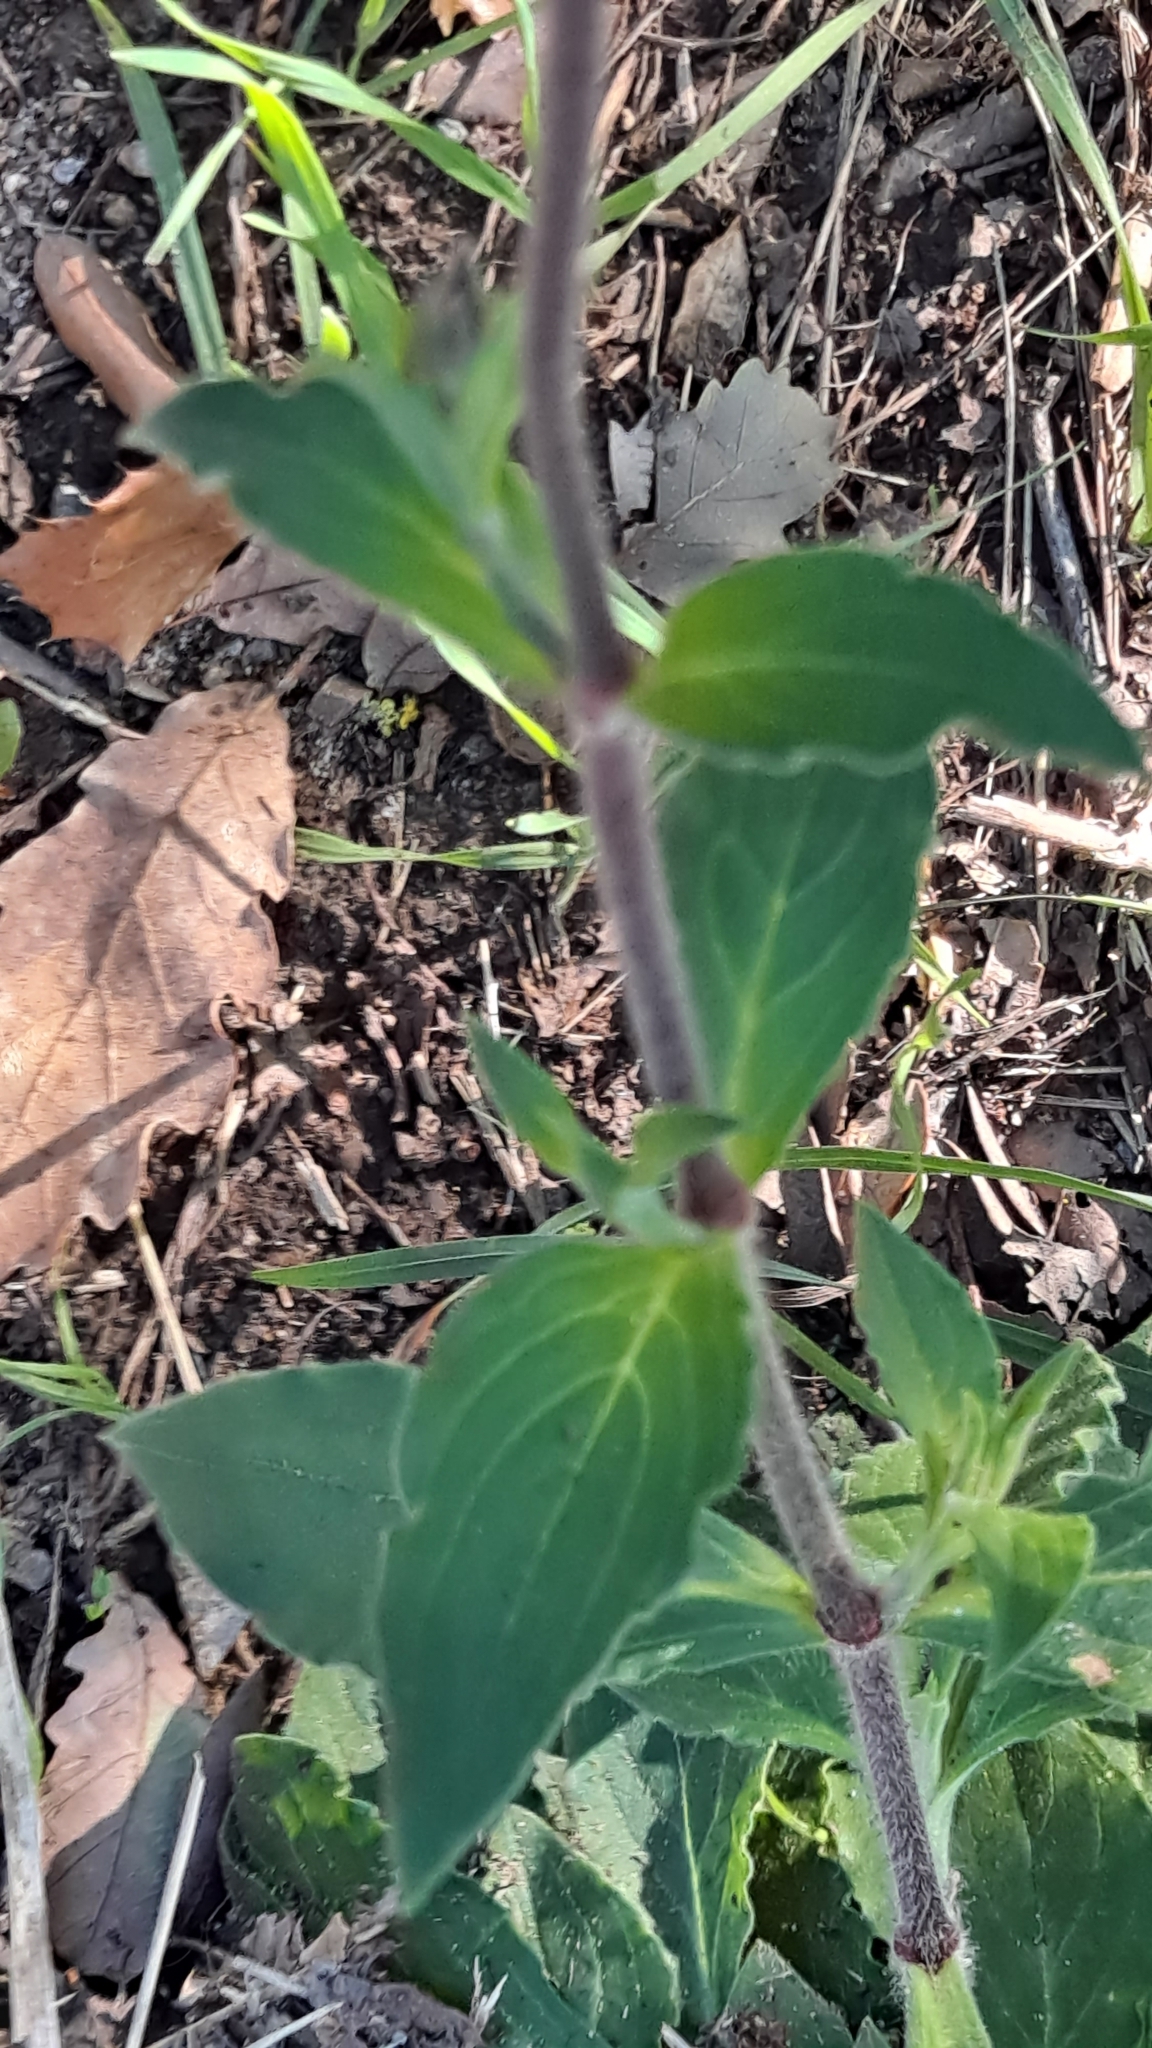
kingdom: Plantae
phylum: Tracheophyta
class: Magnoliopsida
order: Caryophyllales
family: Caryophyllaceae
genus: Silene
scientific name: Silene latifolia
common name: White campion
